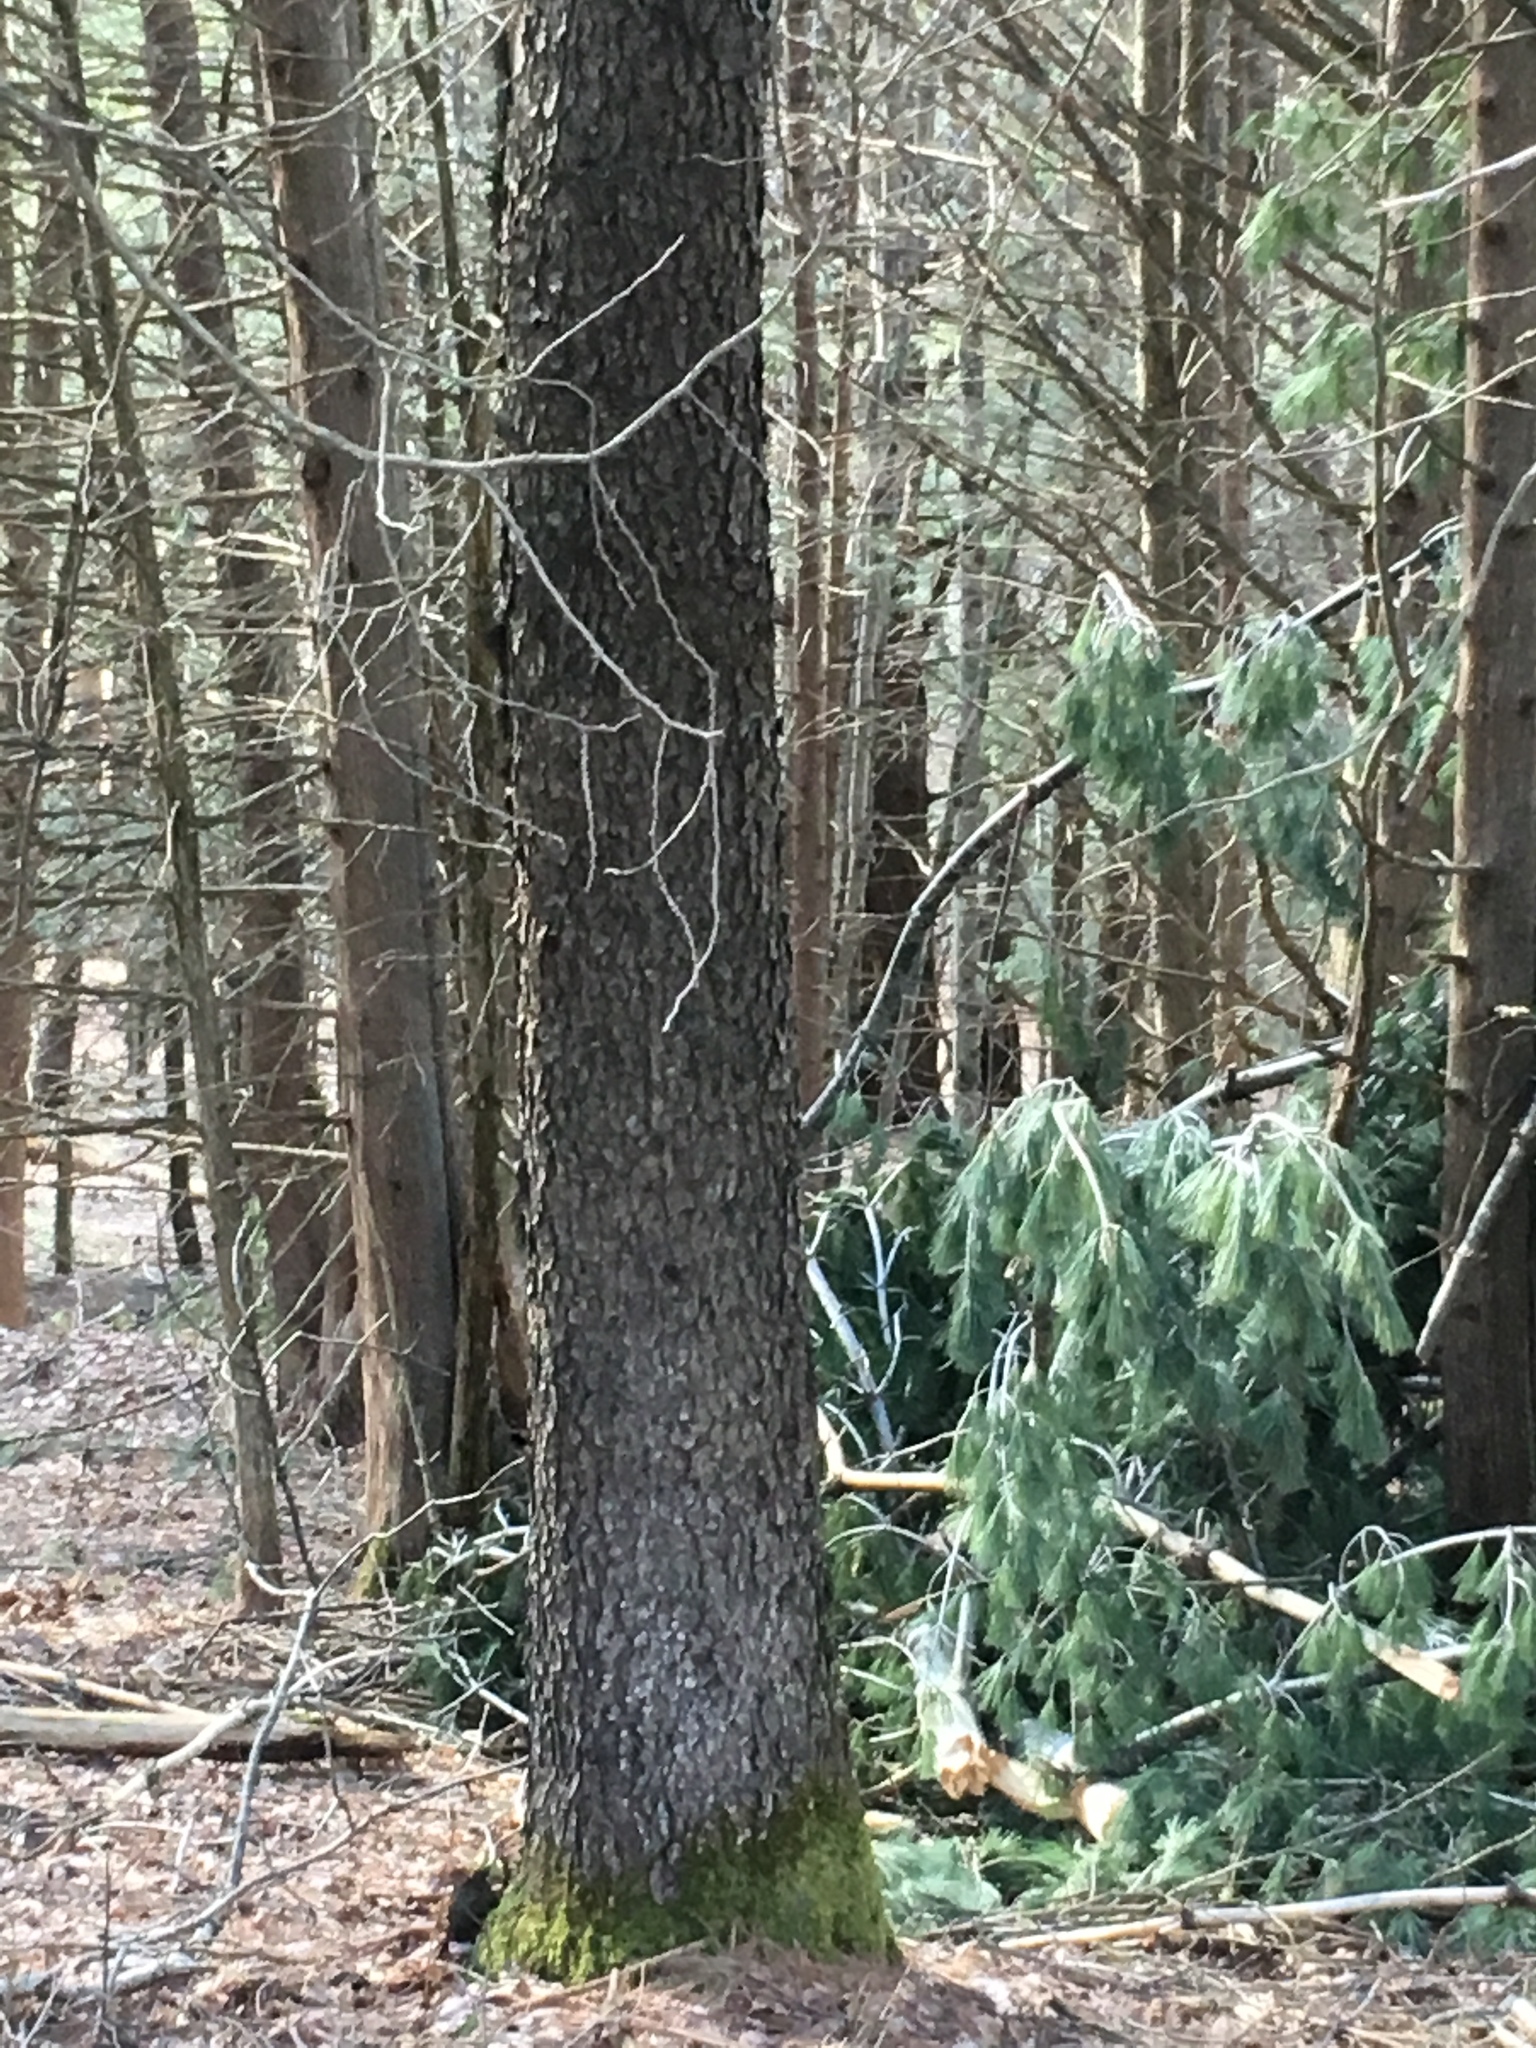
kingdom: Plantae
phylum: Tracheophyta
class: Magnoliopsida
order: Rosales
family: Rosaceae
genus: Prunus
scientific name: Prunus serotina
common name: Black cherry
